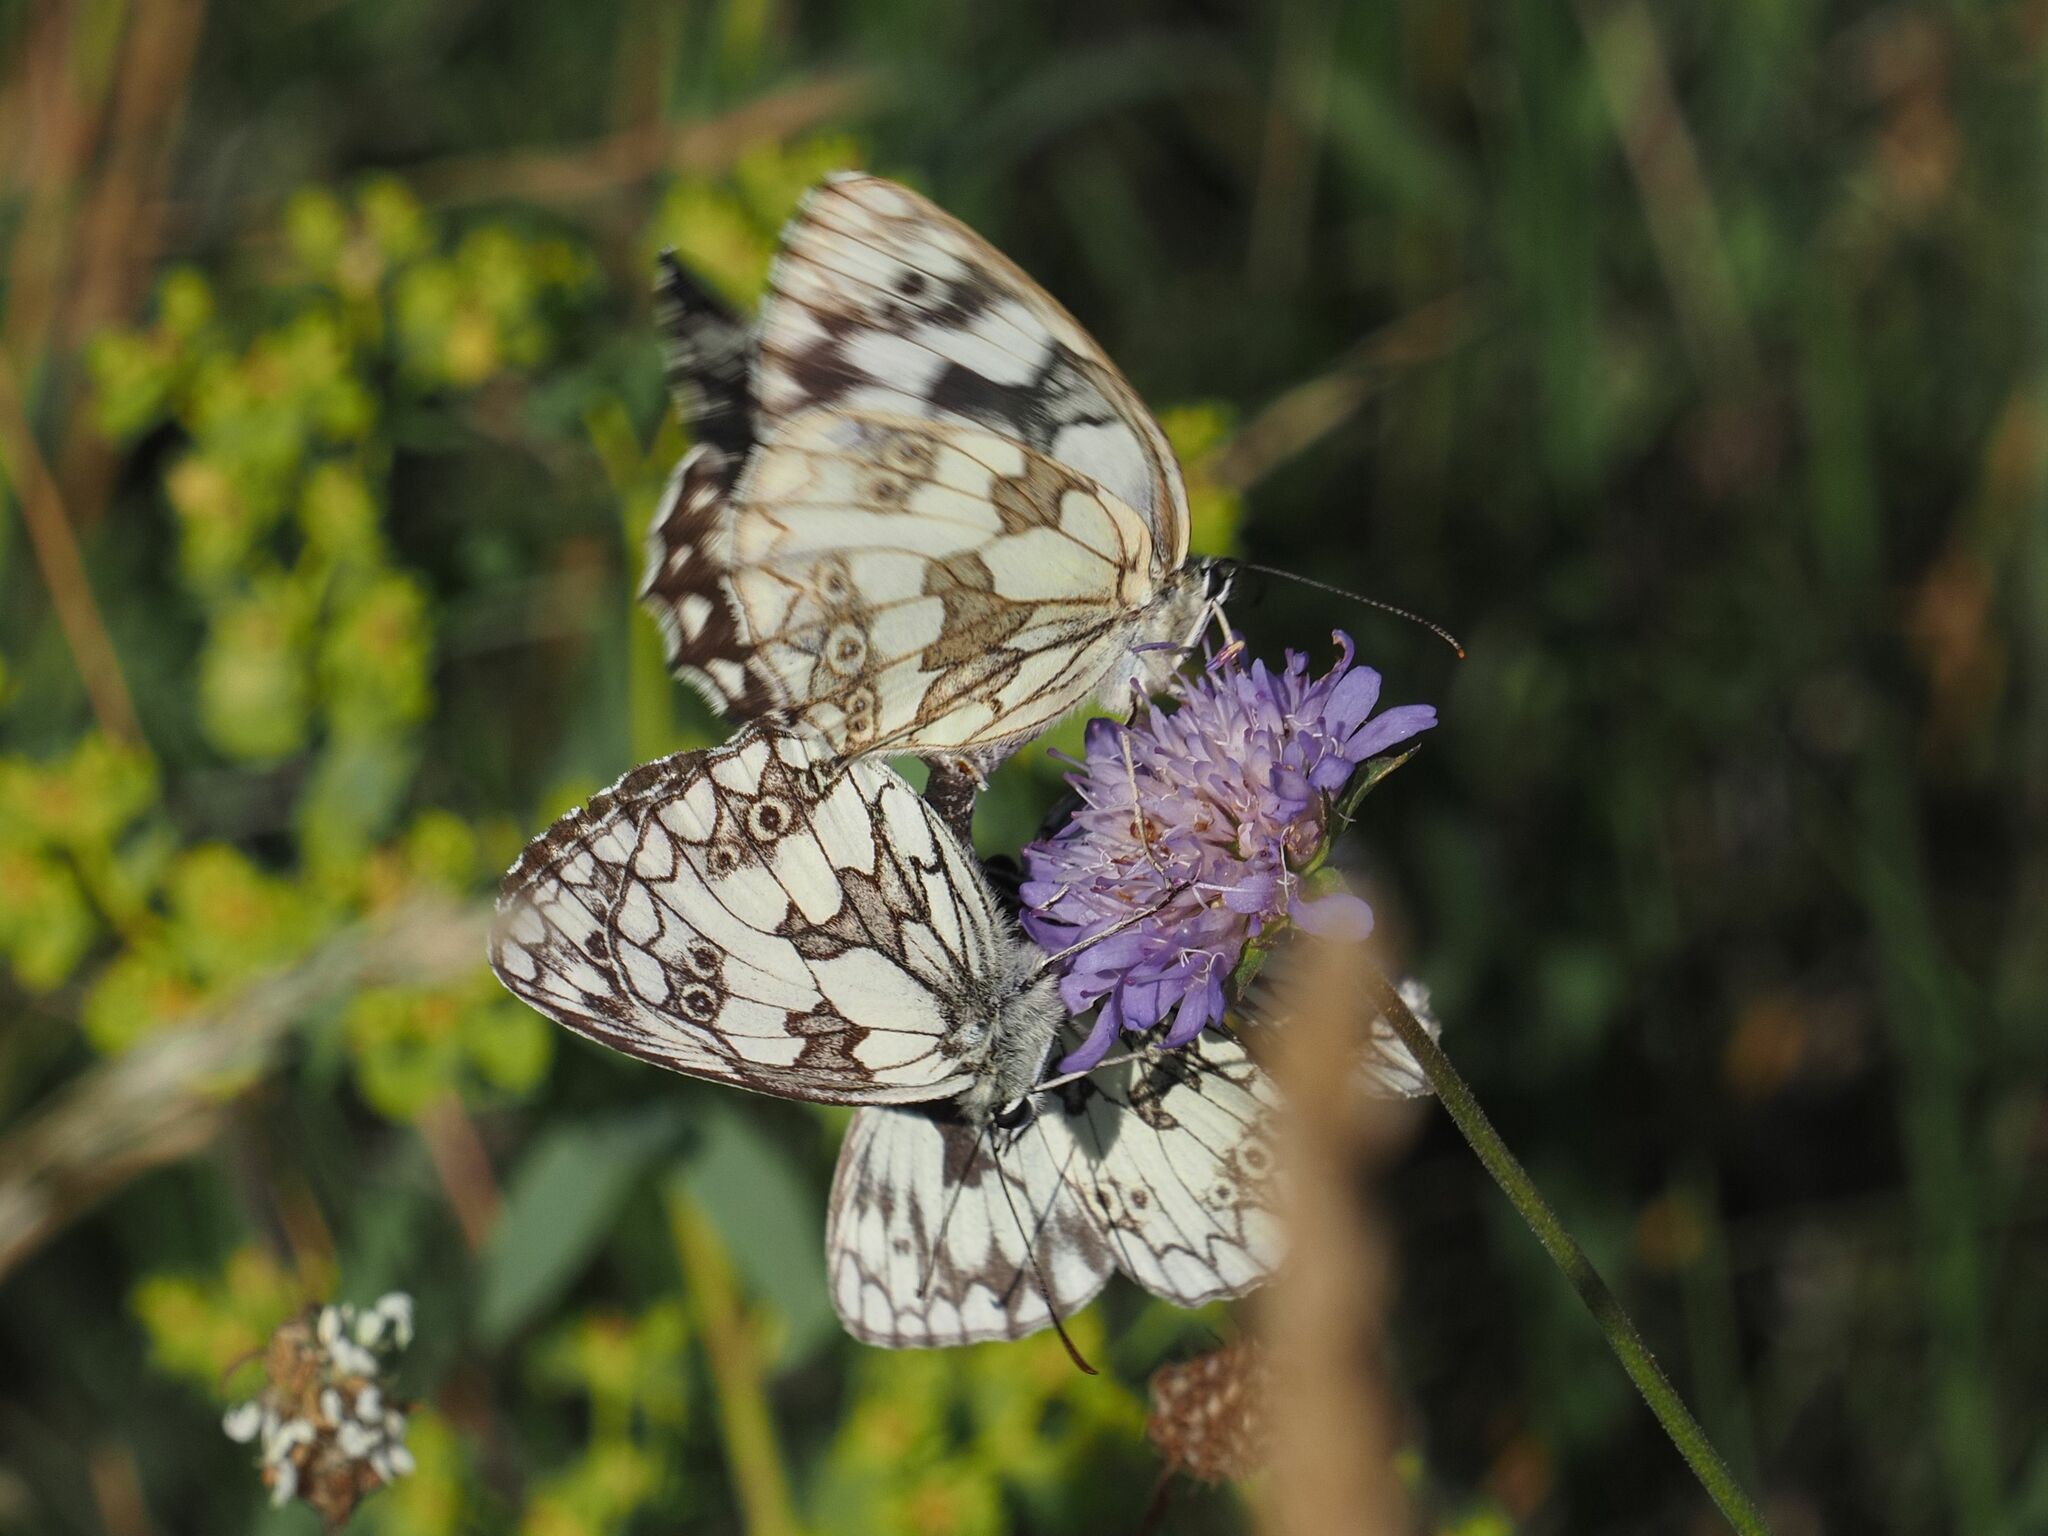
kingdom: Animalia
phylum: Arthropoda
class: Insecta
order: Lepidoptera
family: Nymphalidae
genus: Melanargia
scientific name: Melanargia galathea
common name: Marbled white
